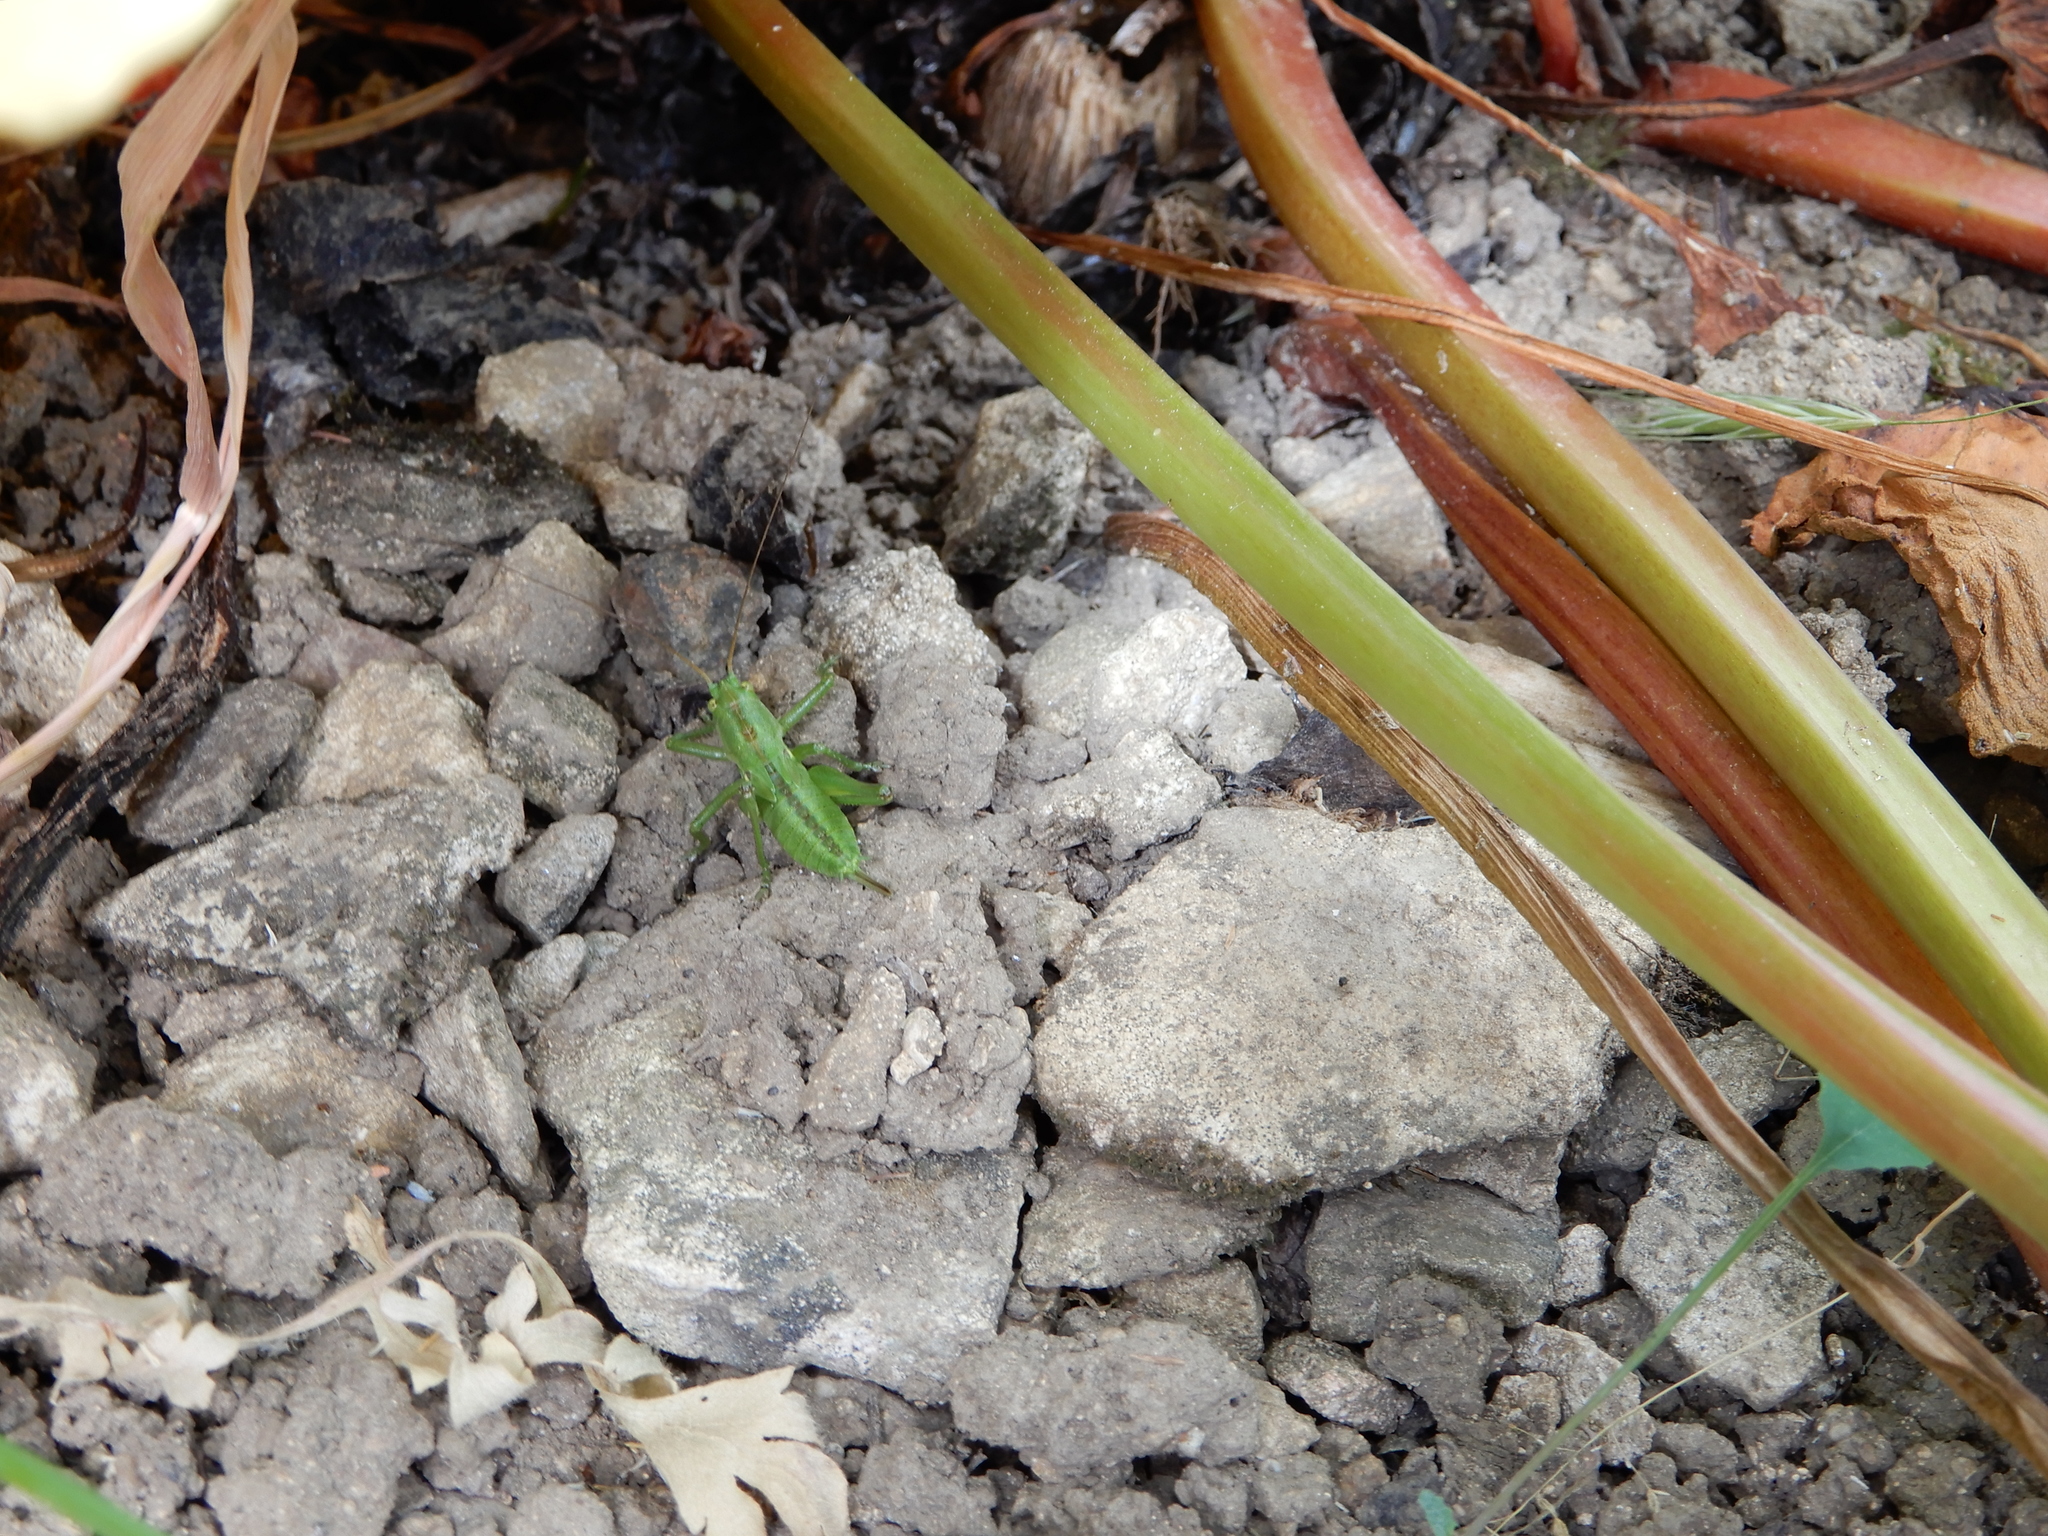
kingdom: Animalia
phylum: Arthropoda
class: Insecta
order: Orthoptera
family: Tettigoniidae
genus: Tettigonia
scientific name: Tettigonia viridissima
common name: Great green bush-cricket
